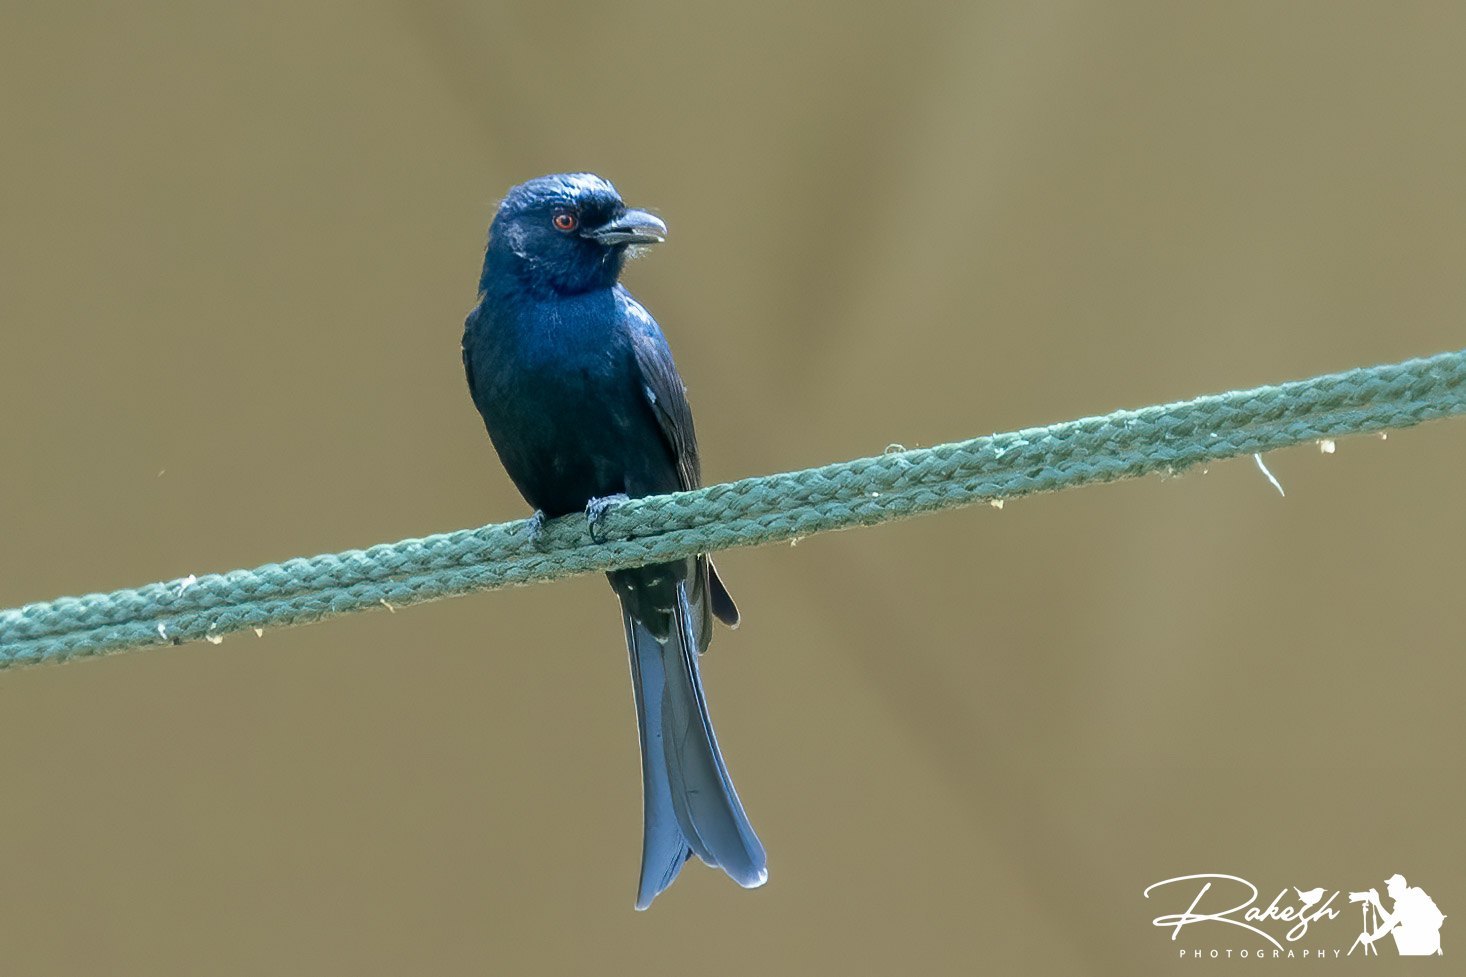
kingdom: Animalia
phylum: Chordata
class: Aves
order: Passeriformes
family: Dicruridae
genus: Dicrurus
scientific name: Dicrurus adsimilis
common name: Fork-tailed drongo
